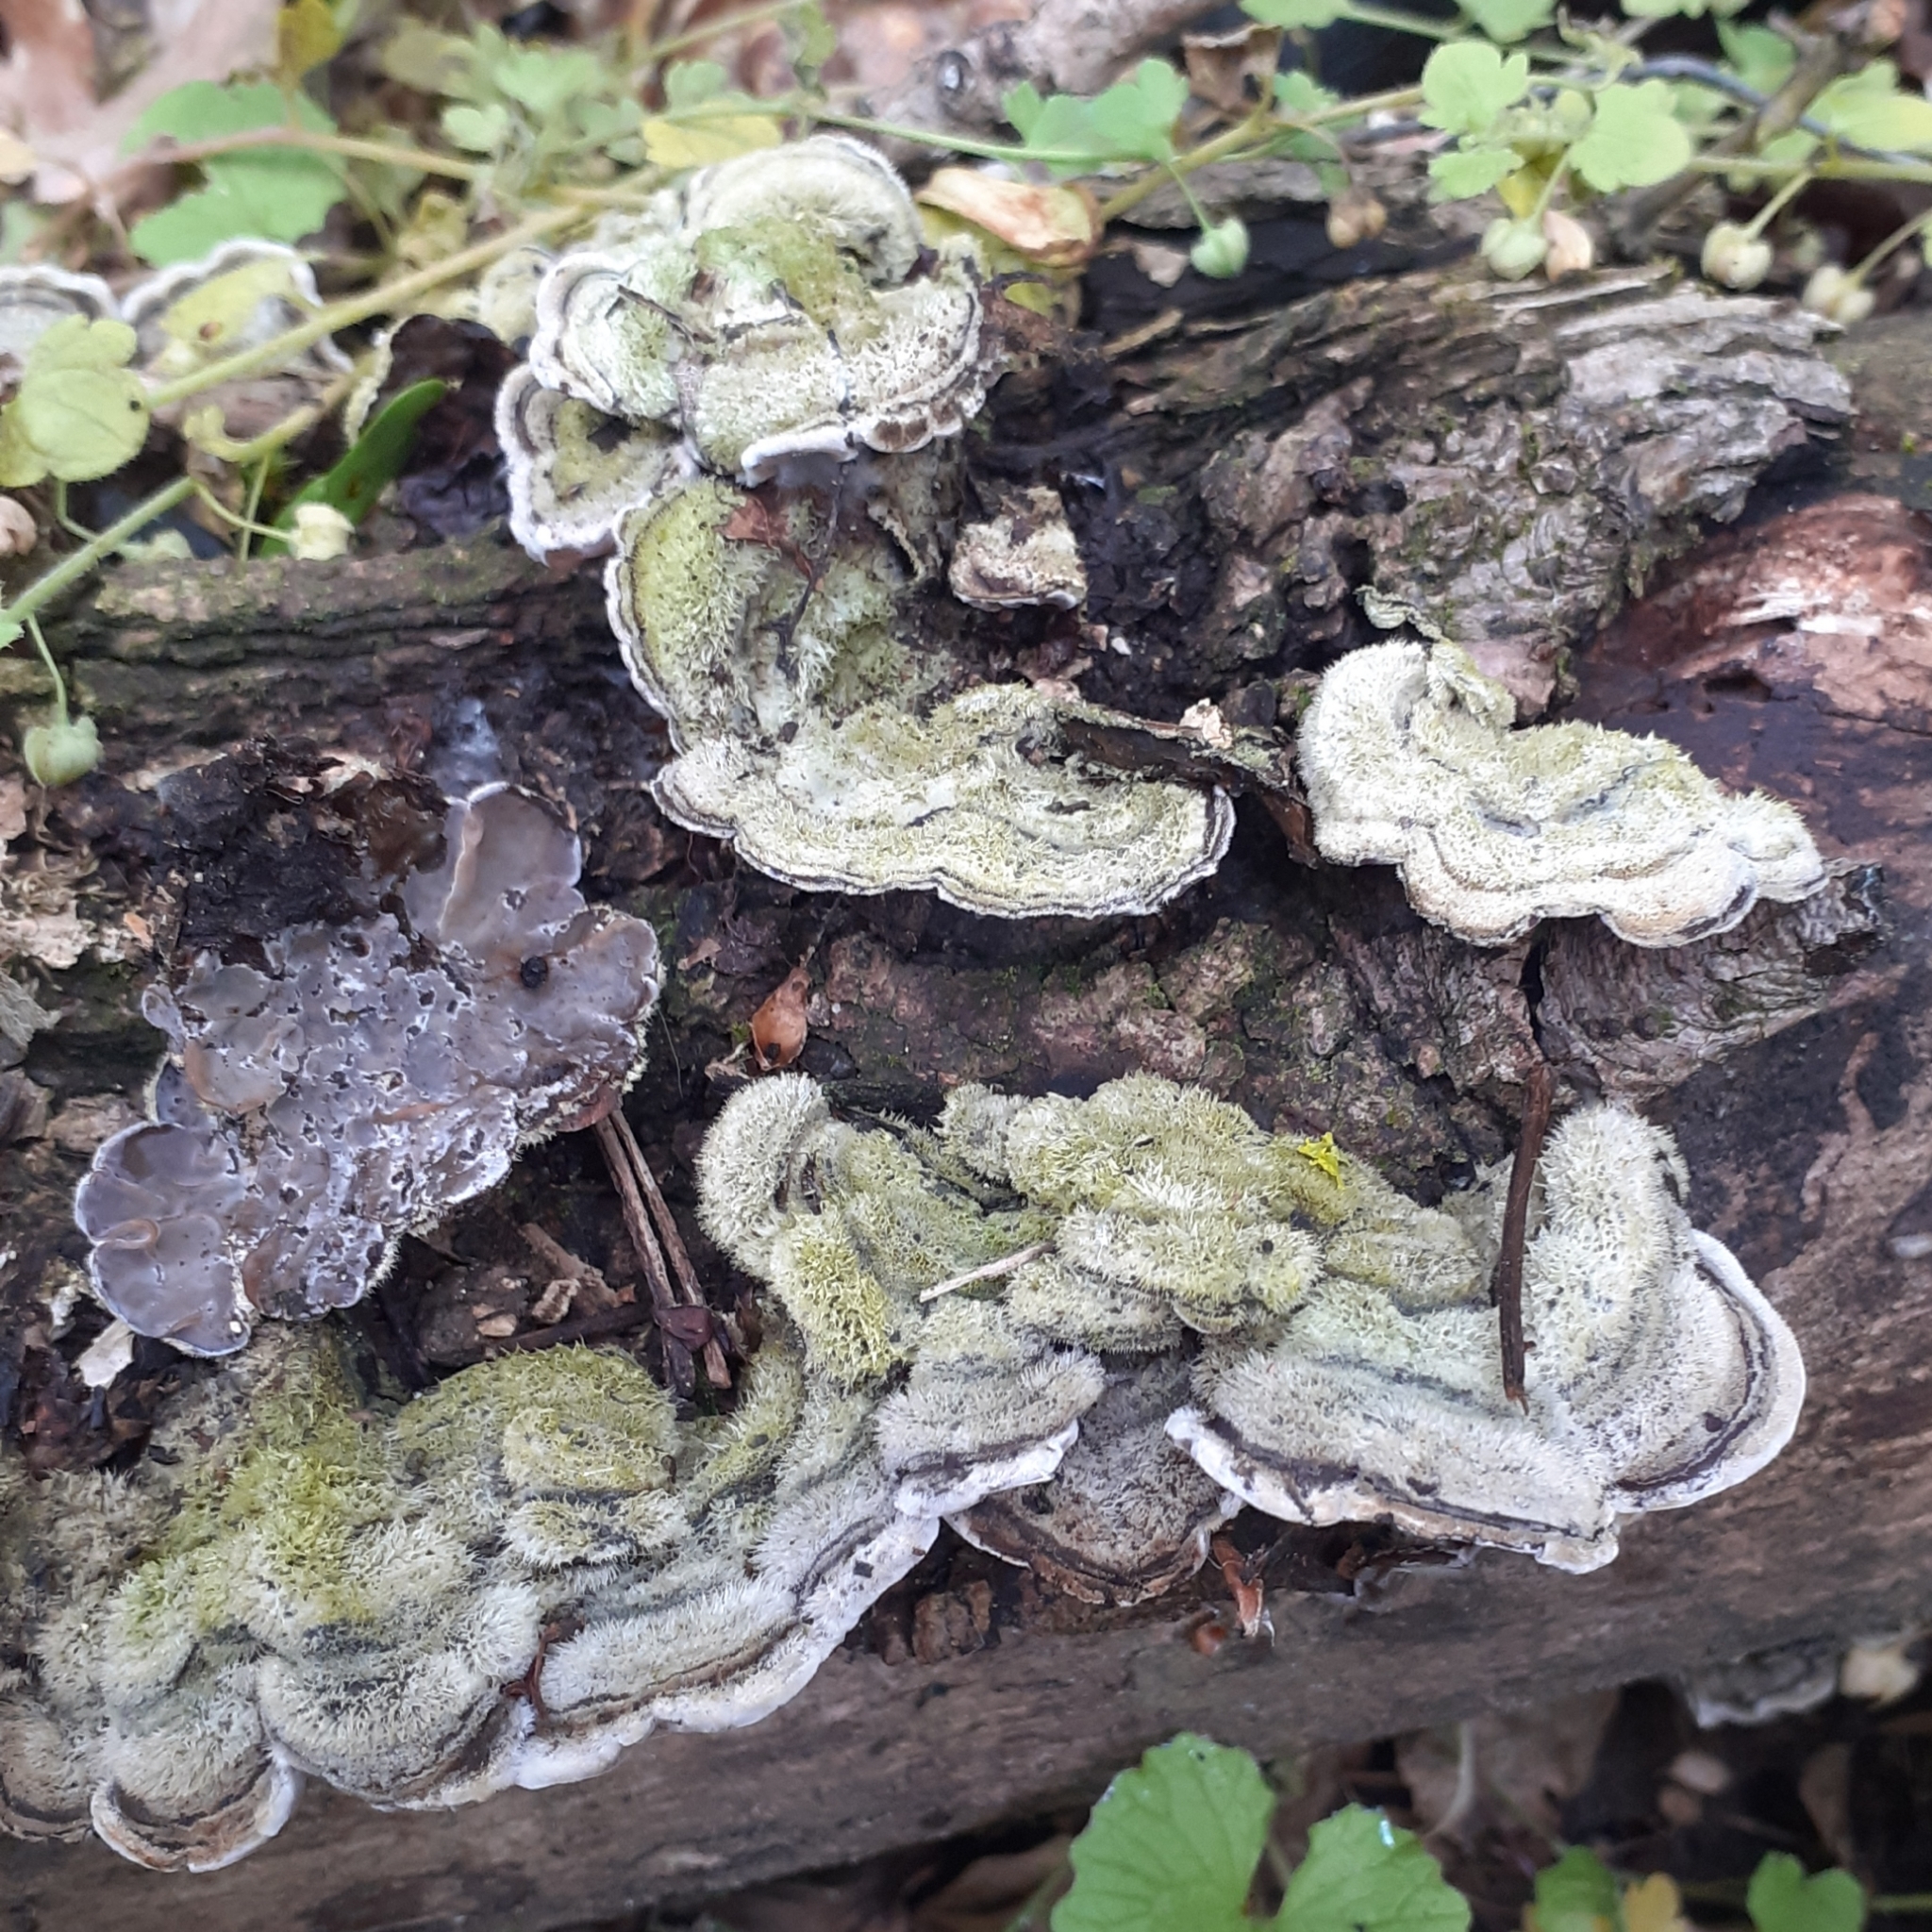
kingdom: Fungi
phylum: Basidiomycota
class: Agaricomycetes
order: Auriculariales
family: Auriculariaceae
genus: Auricularia
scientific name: Auricularia mesenterica
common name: Tripe fungus
